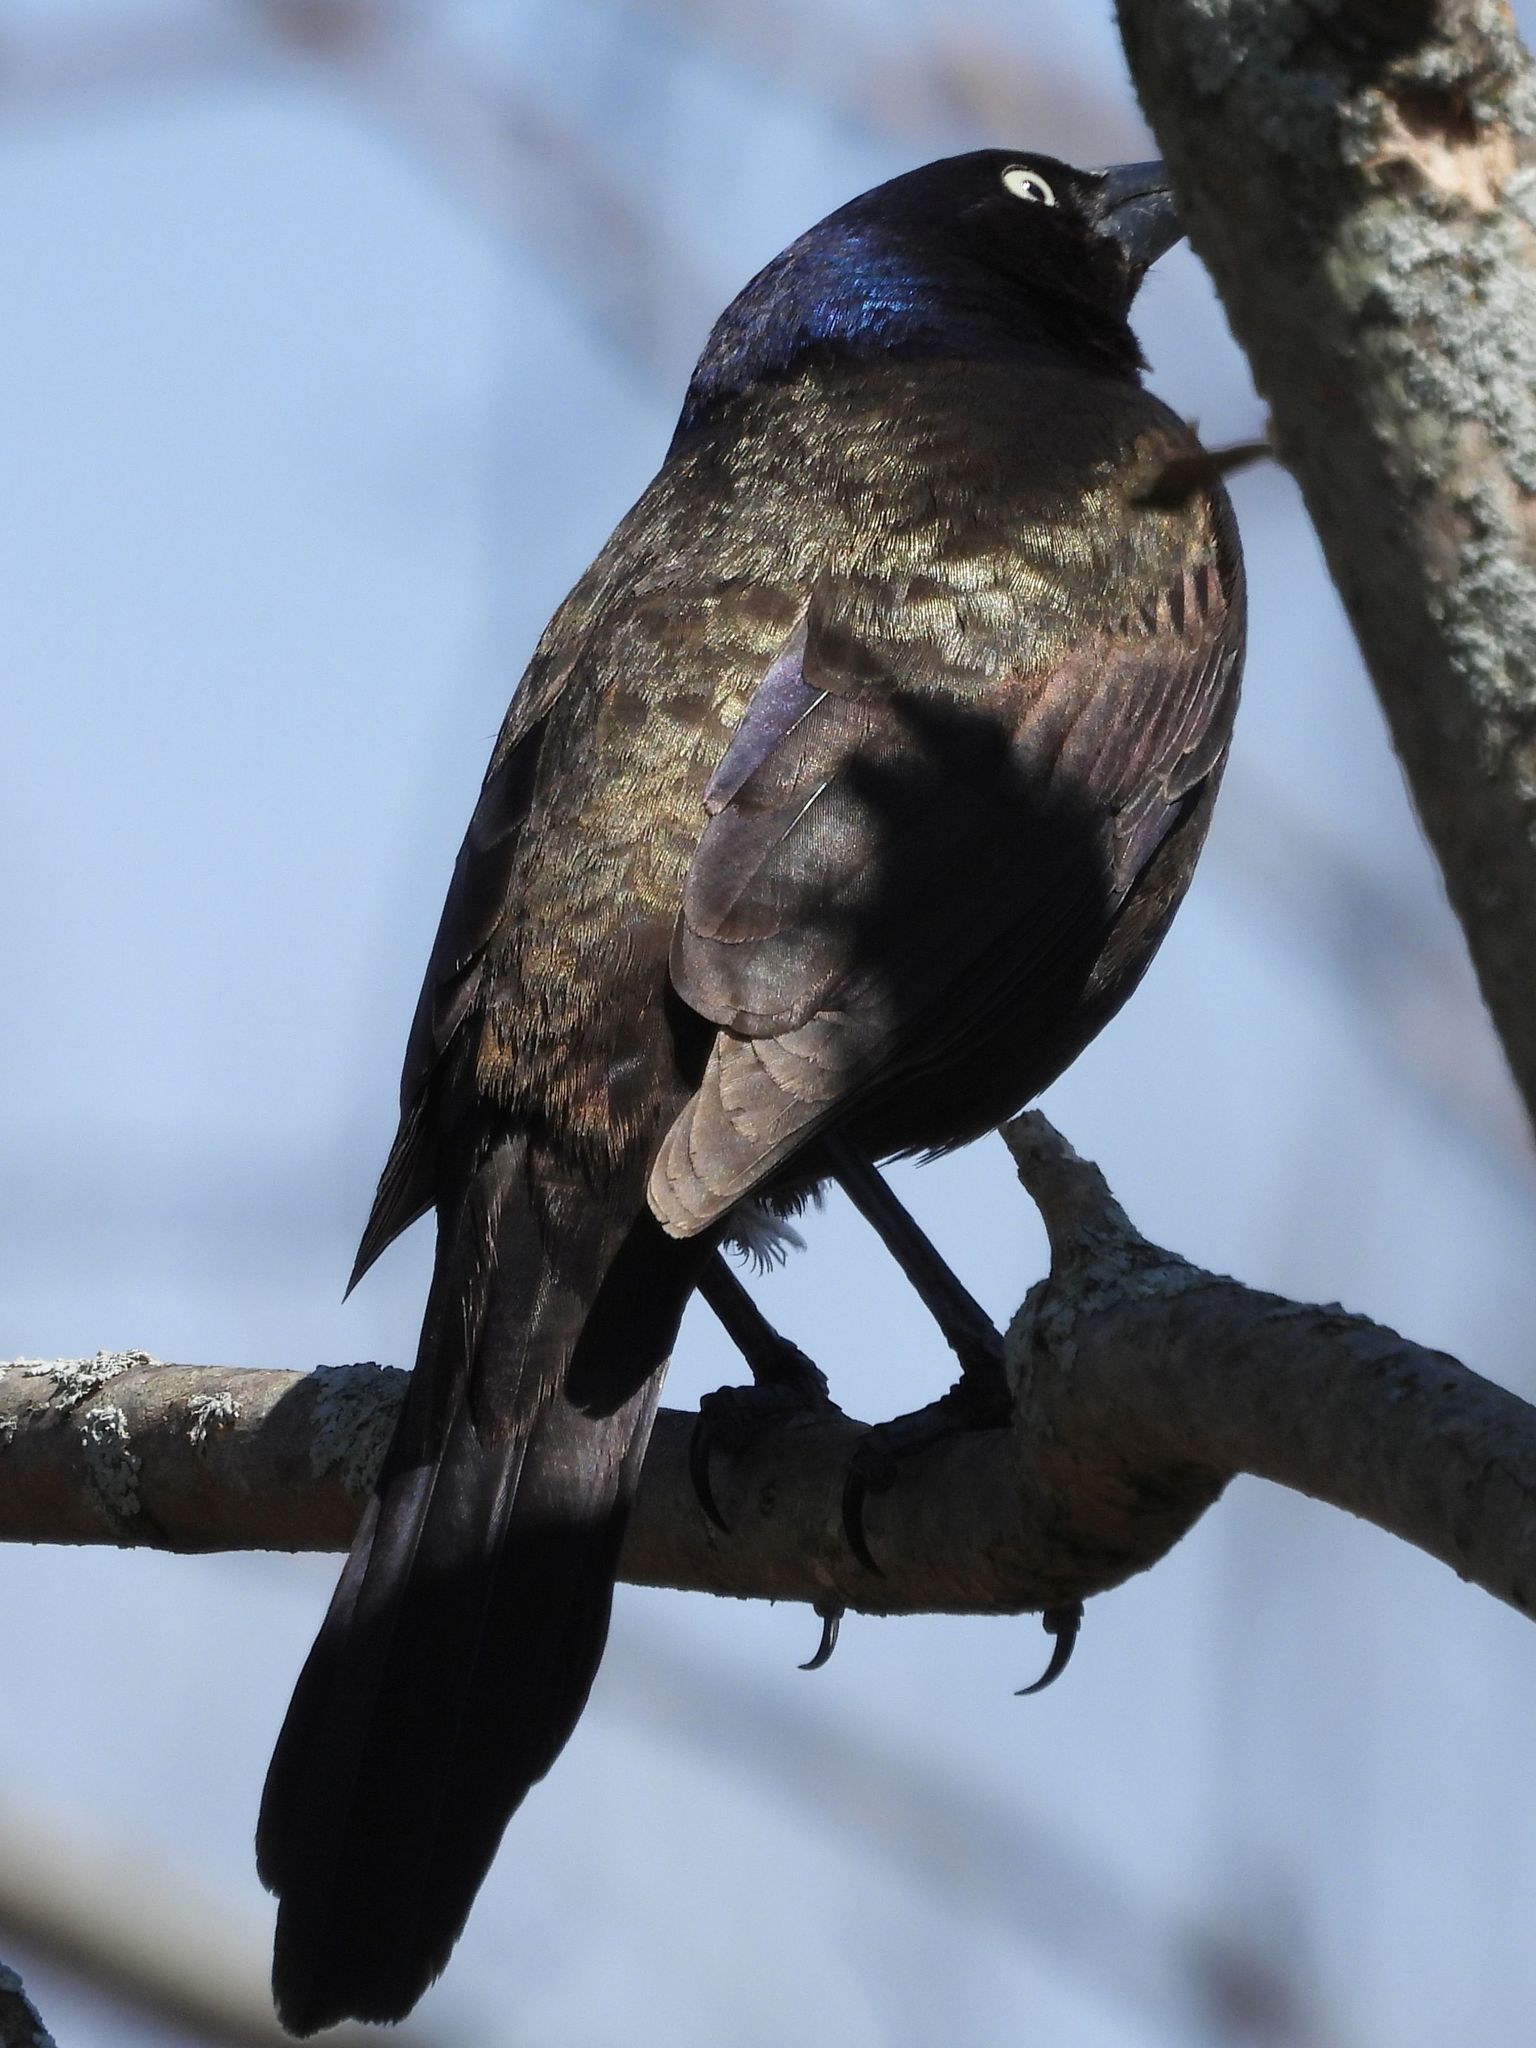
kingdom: Animalia
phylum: Chordata
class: Aves
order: Passeriformes
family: Icteridae
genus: Quiscalus
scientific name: Quiscalus quiscula
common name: Common grackle
